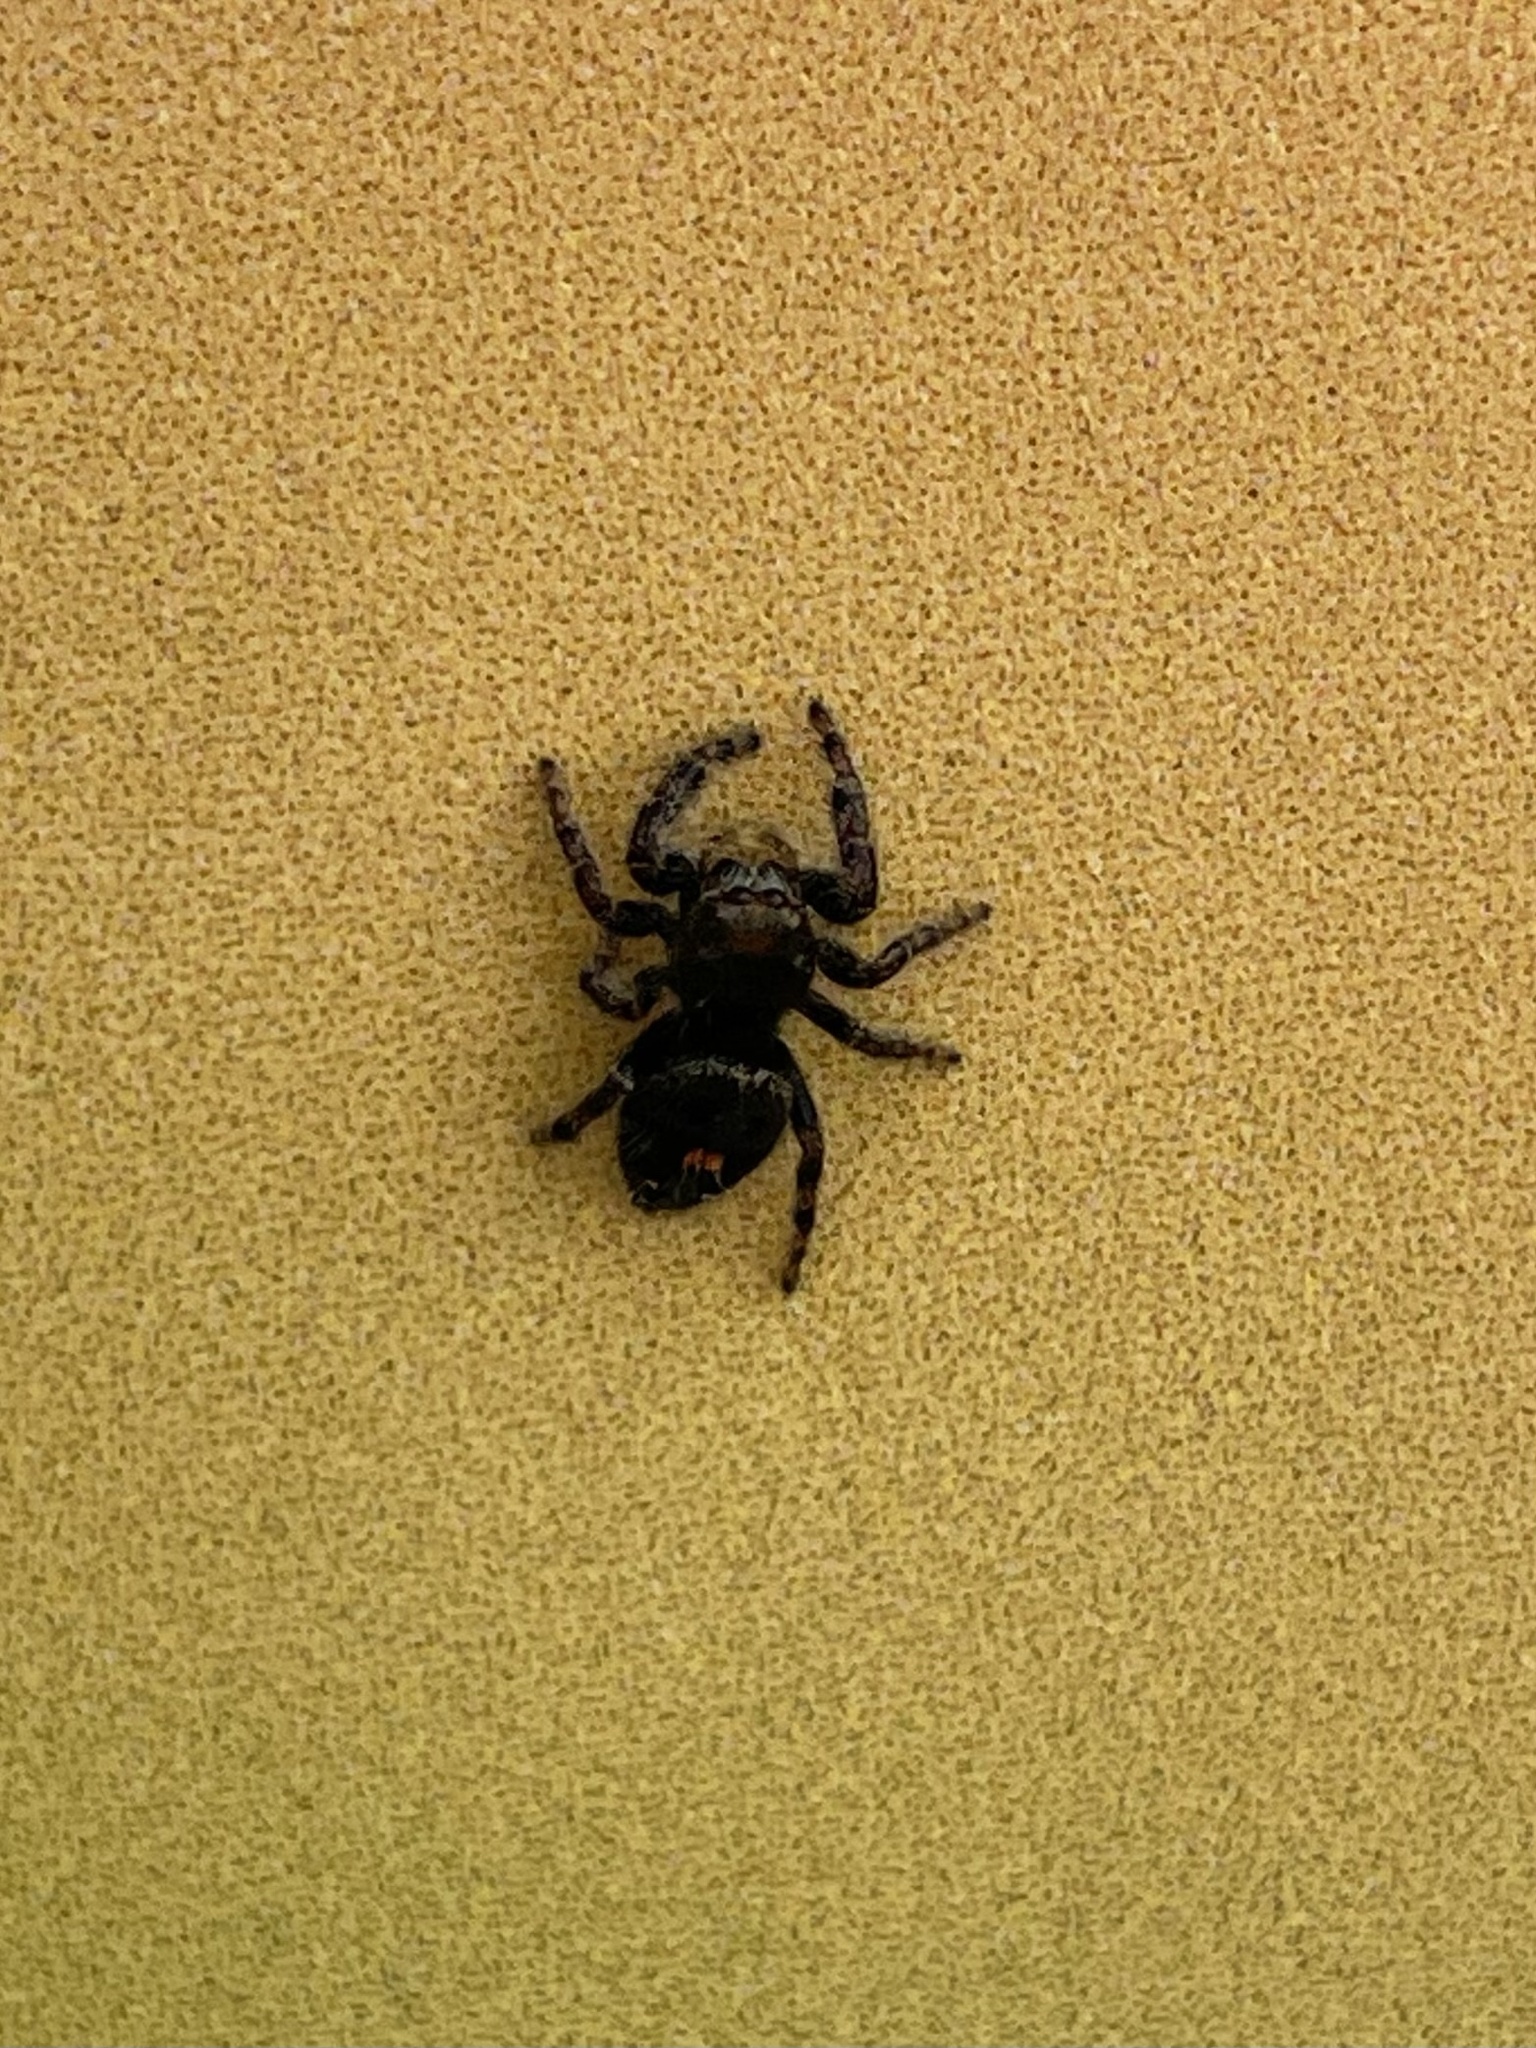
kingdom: Animalia
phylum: Arthropoda
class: Arachnida
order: Araneae
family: Salticidae
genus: Phidippus
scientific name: Phidippus audax
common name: Bold jumper
